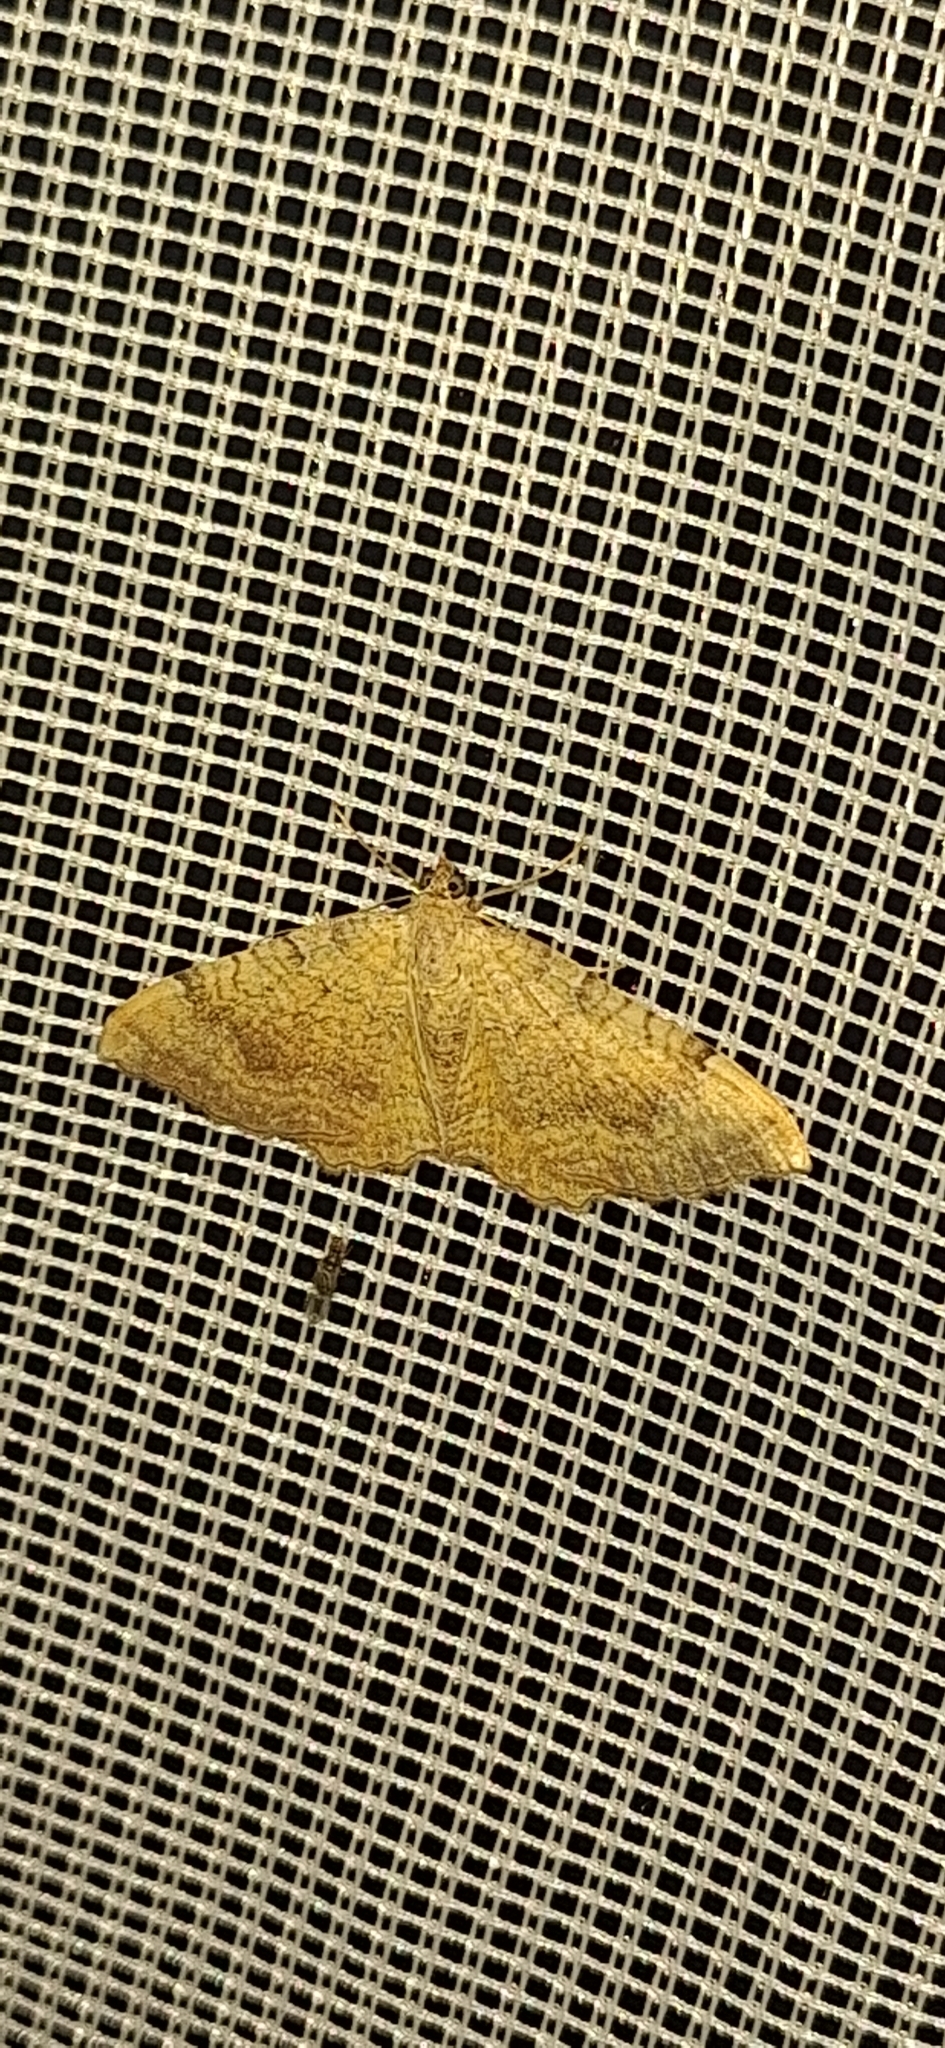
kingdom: Animalia
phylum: Arthropoda
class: Insecta
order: Lepidoptera
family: Geometridae
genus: Camptogramma
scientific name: Camptogramma bilineata
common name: Yellow shell
